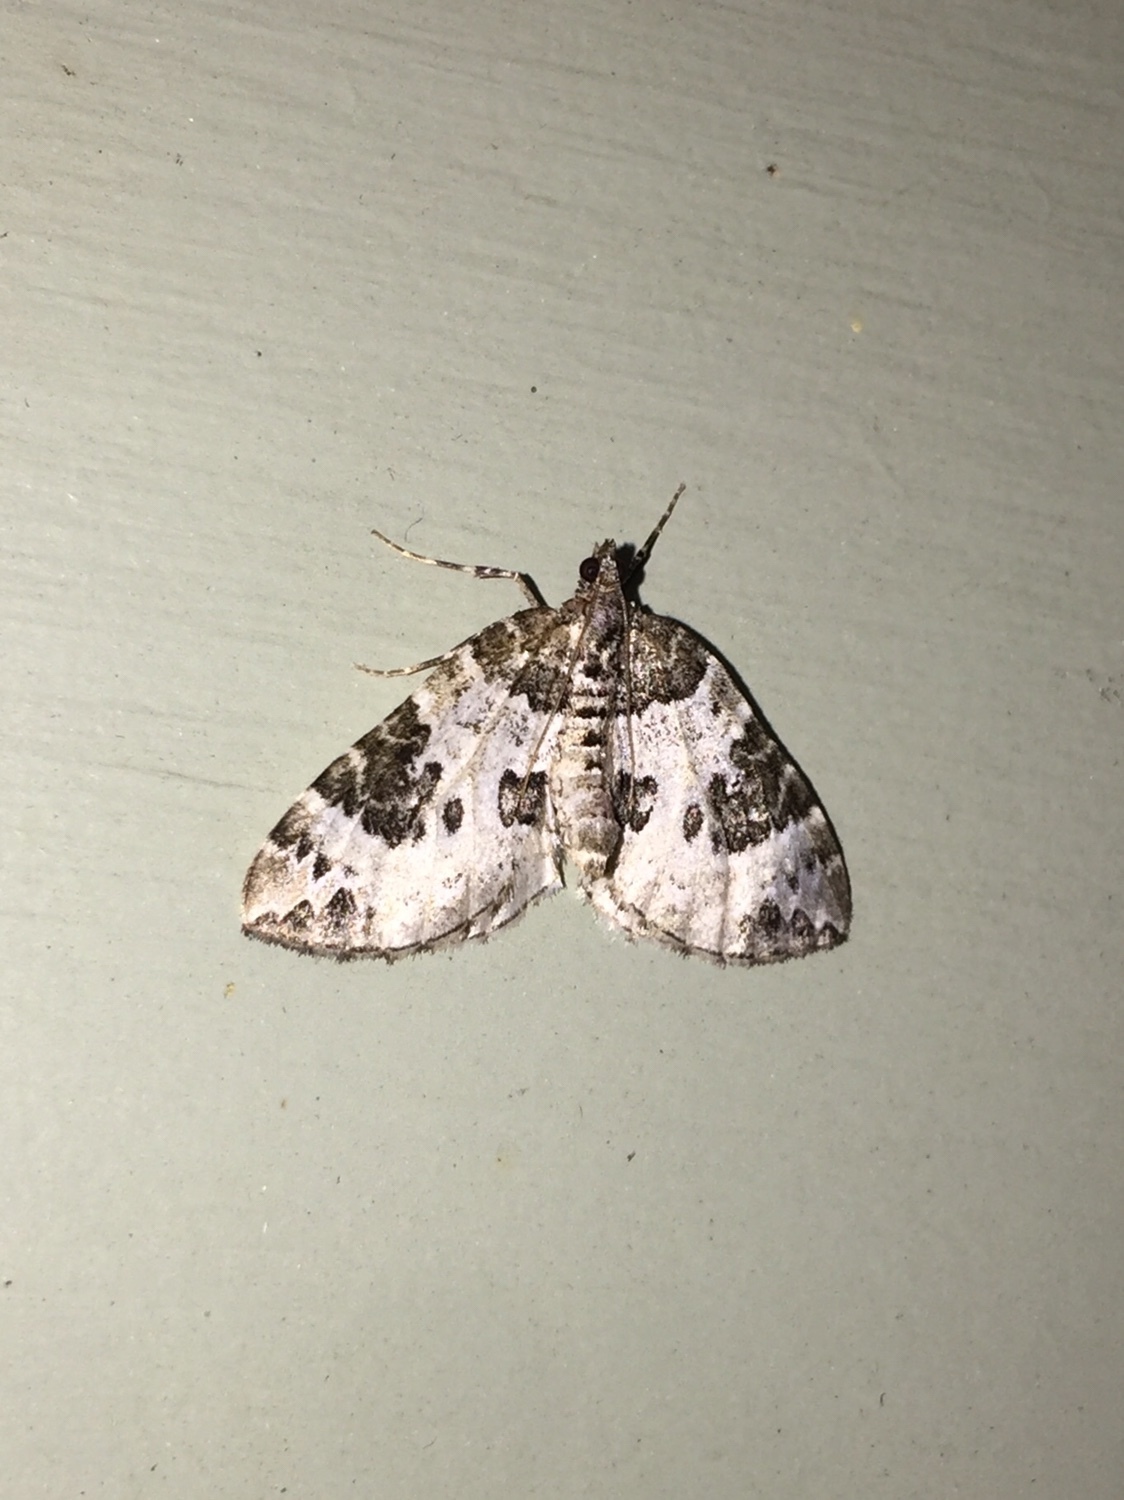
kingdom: Animalia
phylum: Arthropoda
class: Insecta
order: Lepidoptera
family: Geometridae
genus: Eulithis
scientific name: Eulithis explanata
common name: White eulithis
